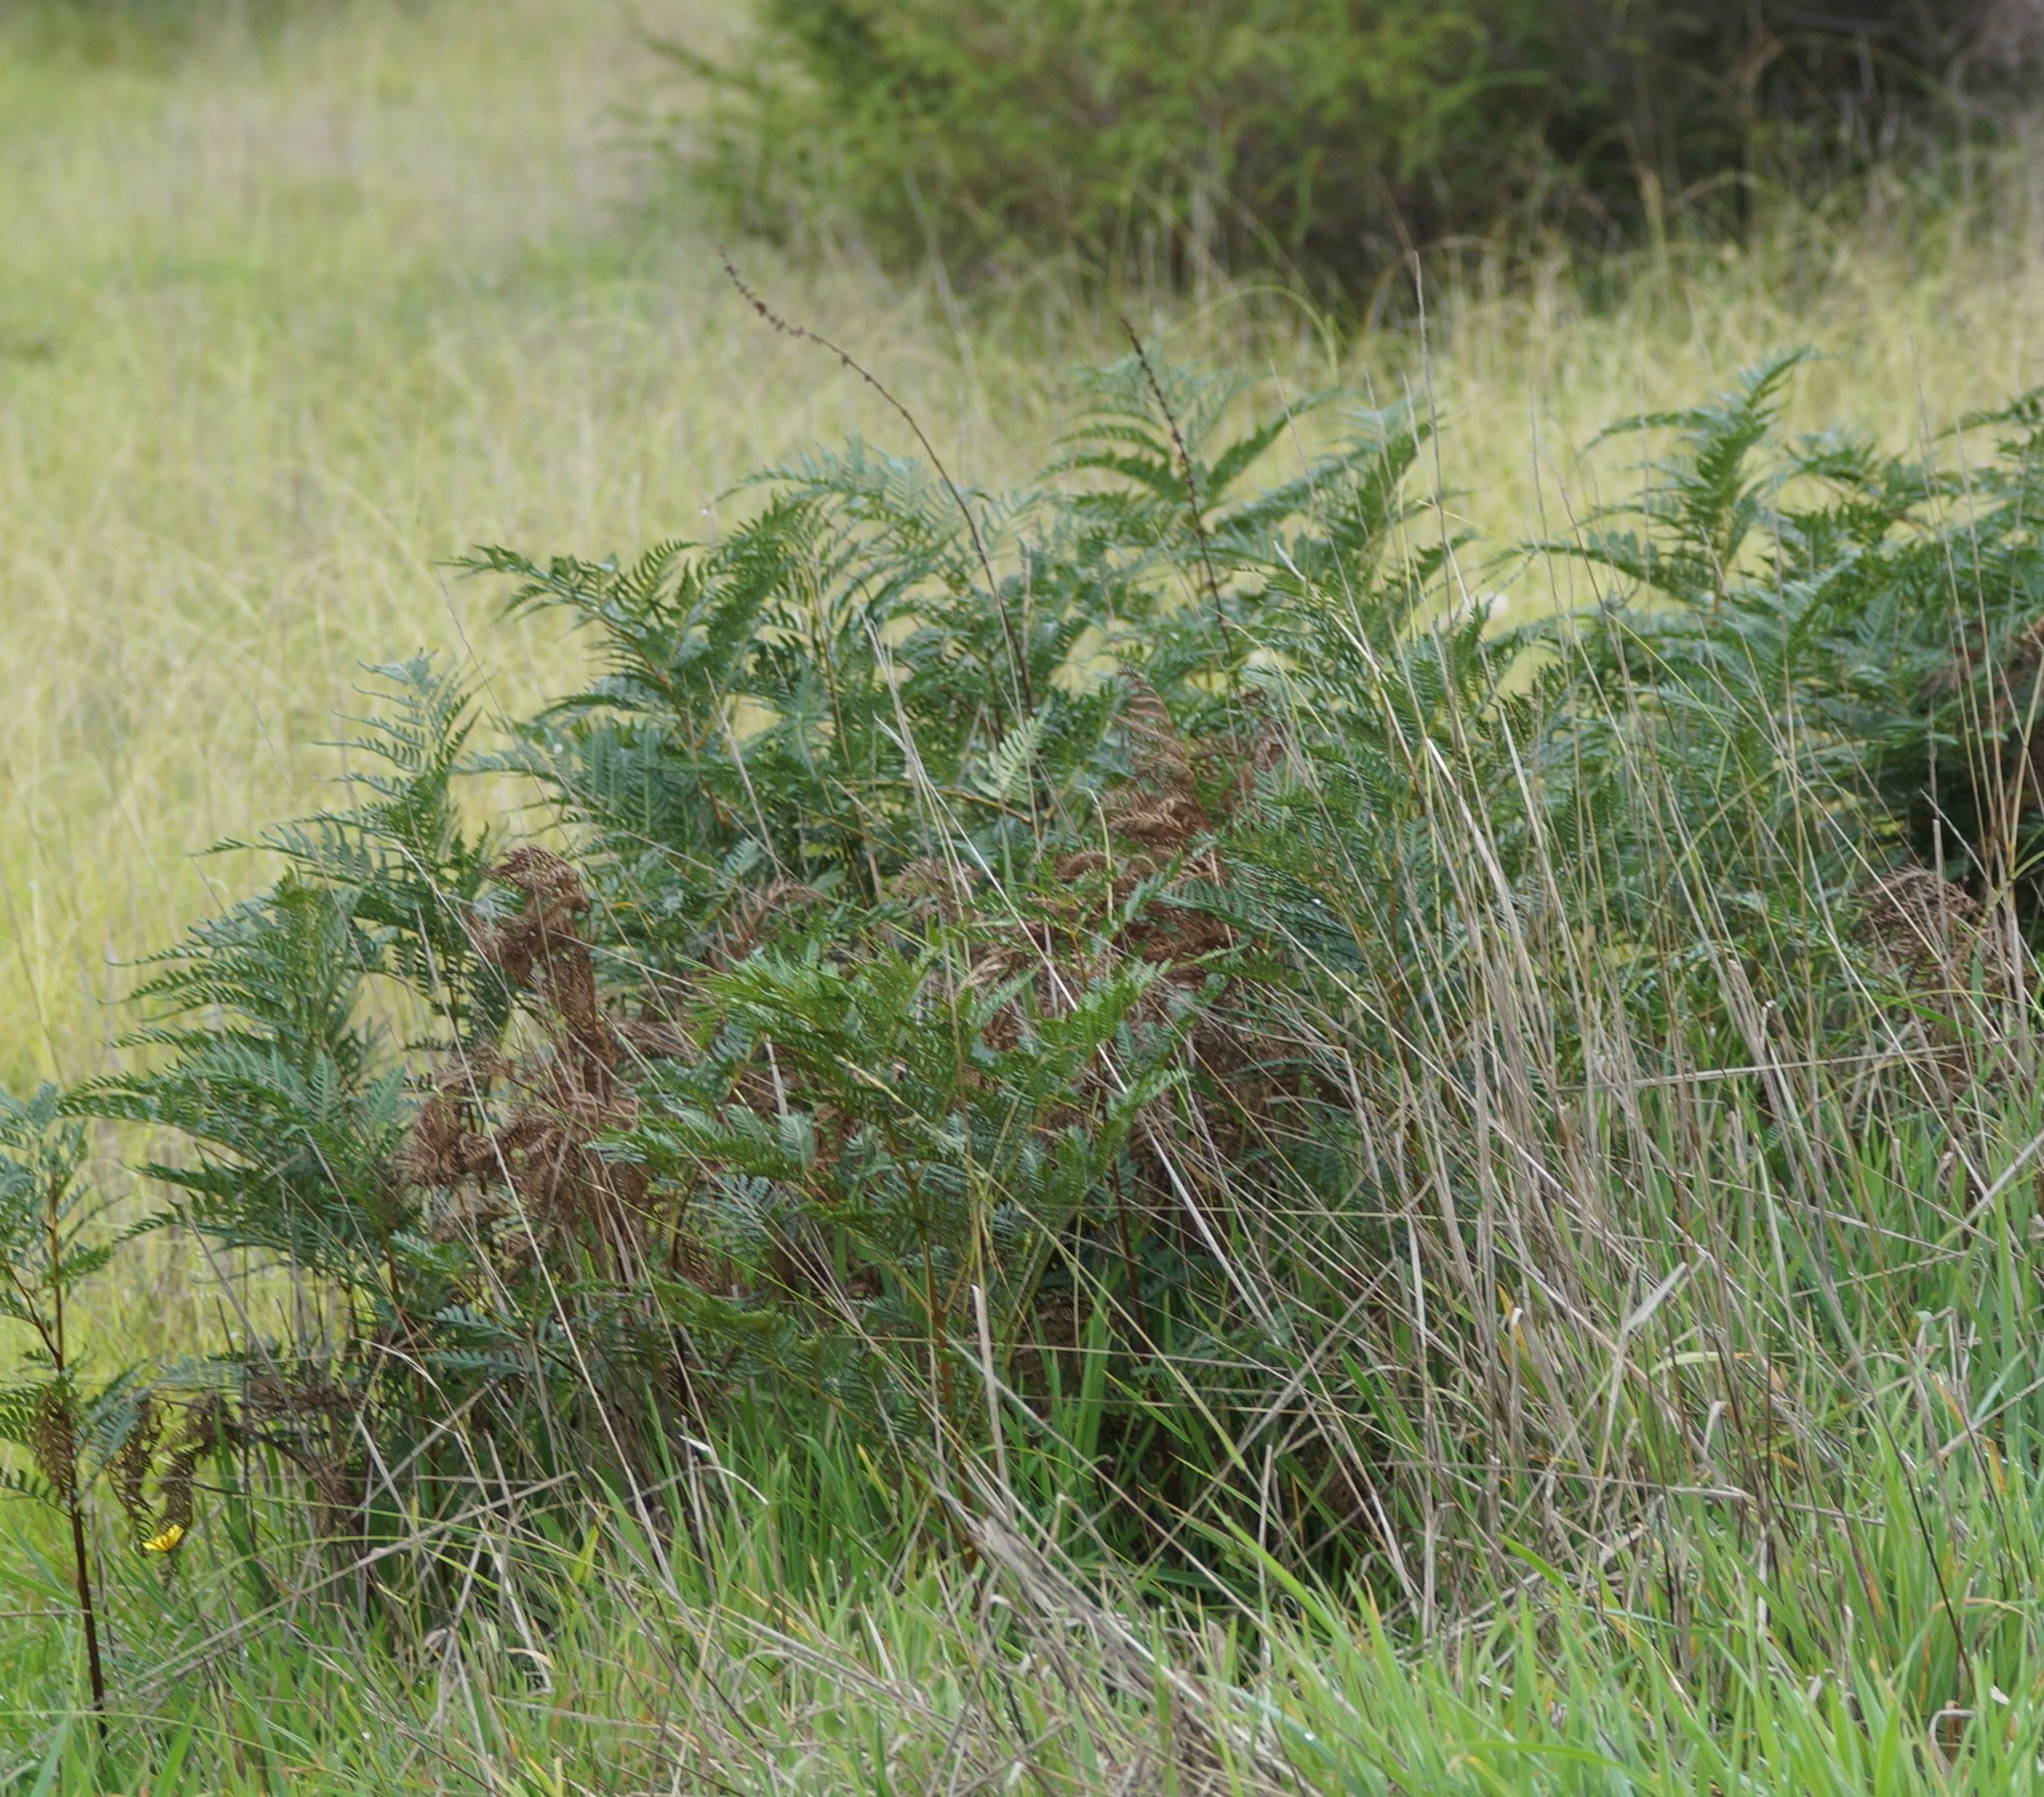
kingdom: Plantae
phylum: Tracheophyta
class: Polypodiopsida
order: Polypodiales
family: Dennstaedtiaceae
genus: Pteridium
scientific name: Pteridium esculentum
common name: Bracken fern
